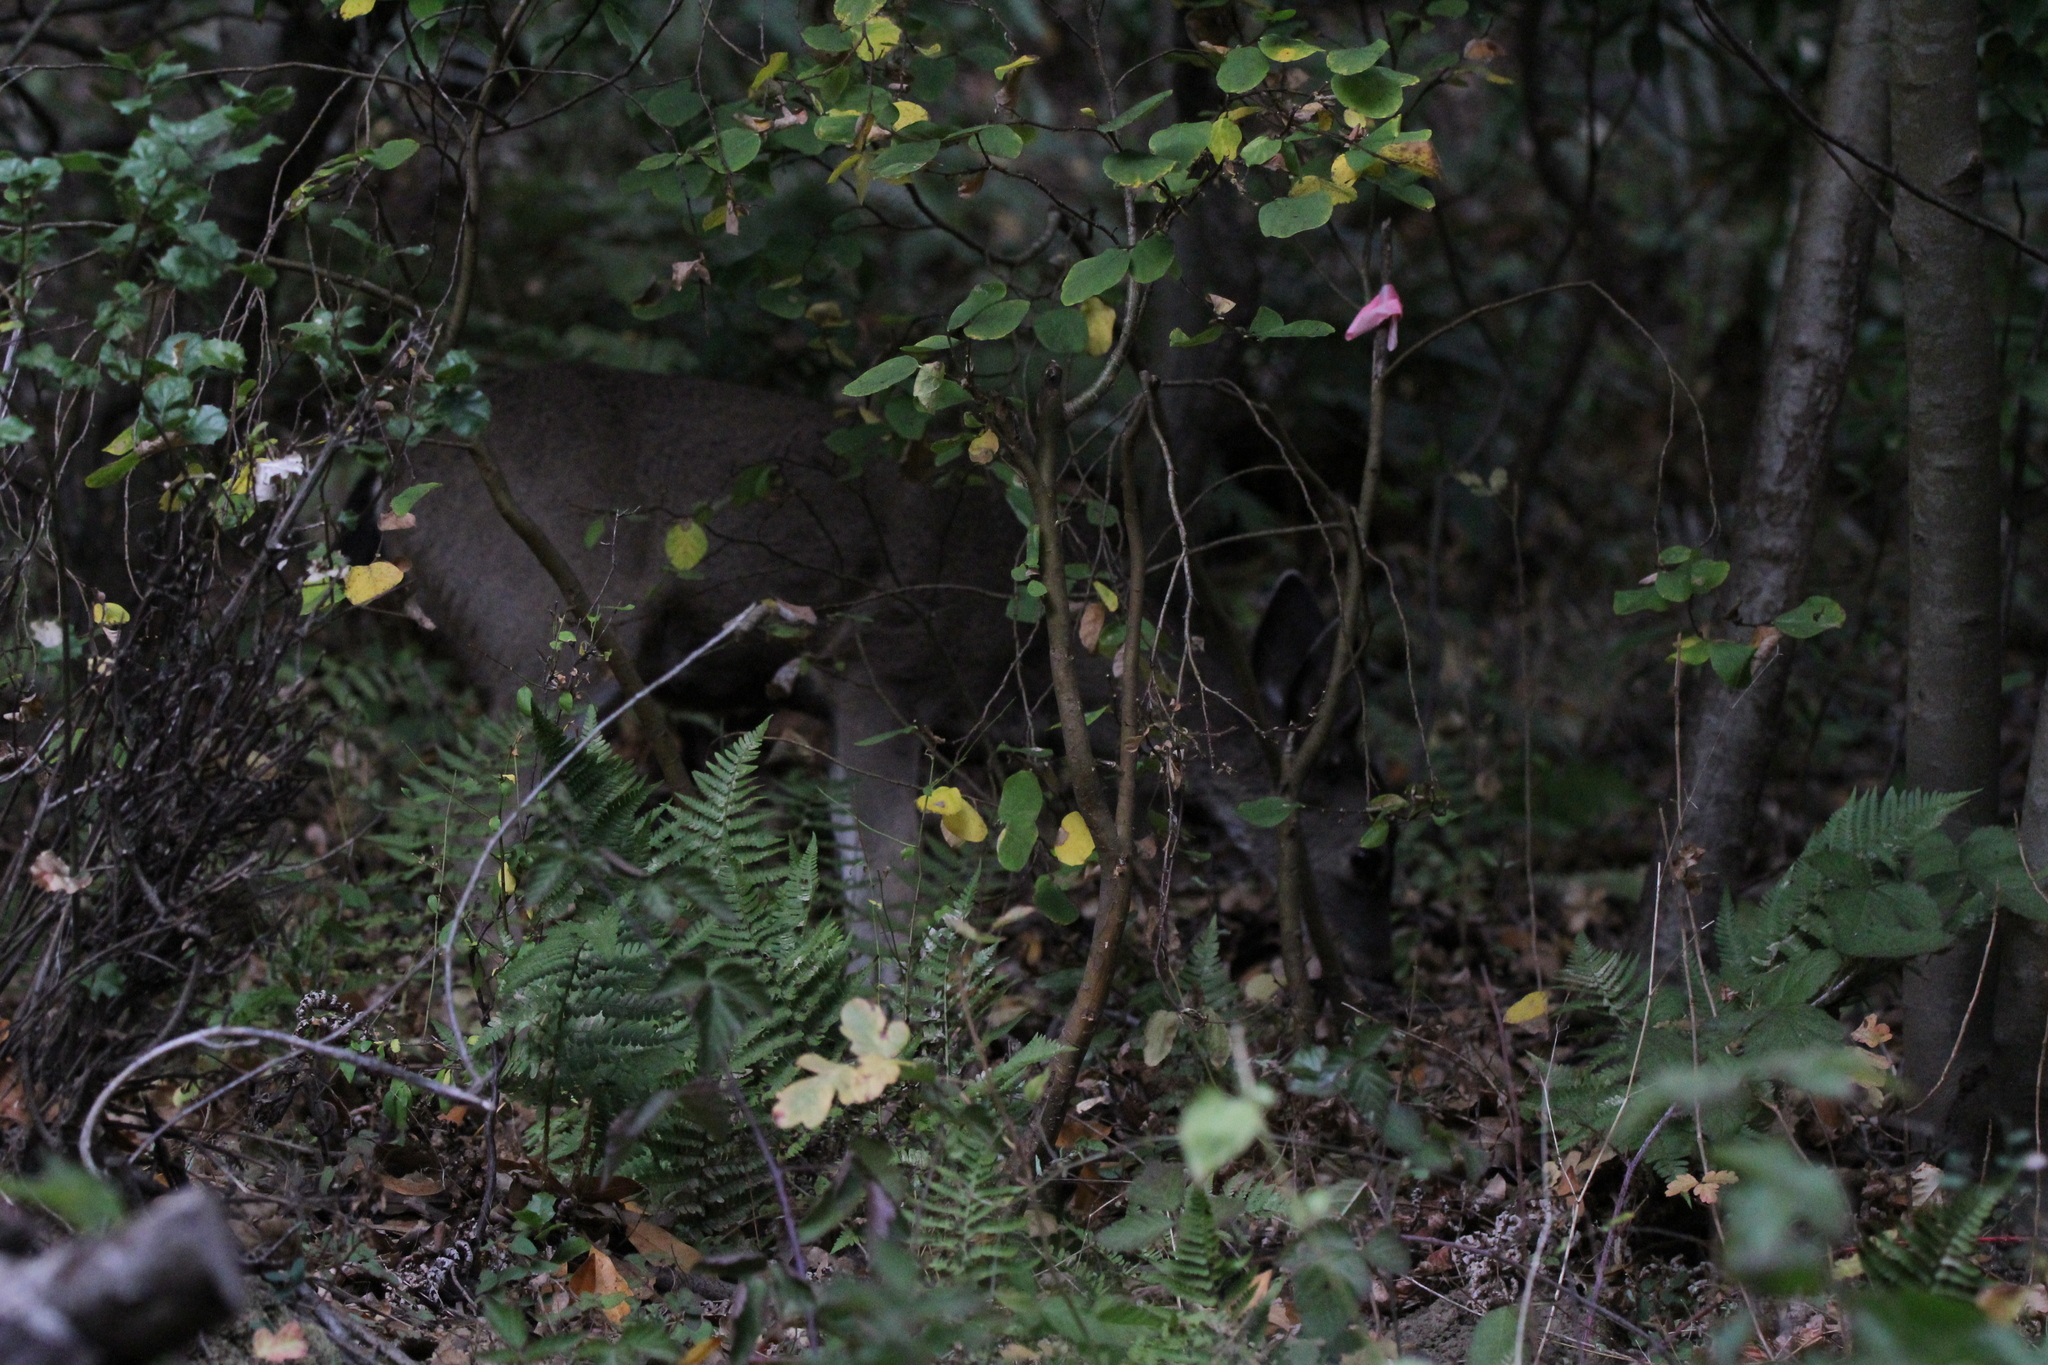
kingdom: Animalia
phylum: Chordata
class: Mammalia
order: Artiodactyla
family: Cervidae
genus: Odocoileus
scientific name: Odocoileus hemionus
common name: Mule deer
